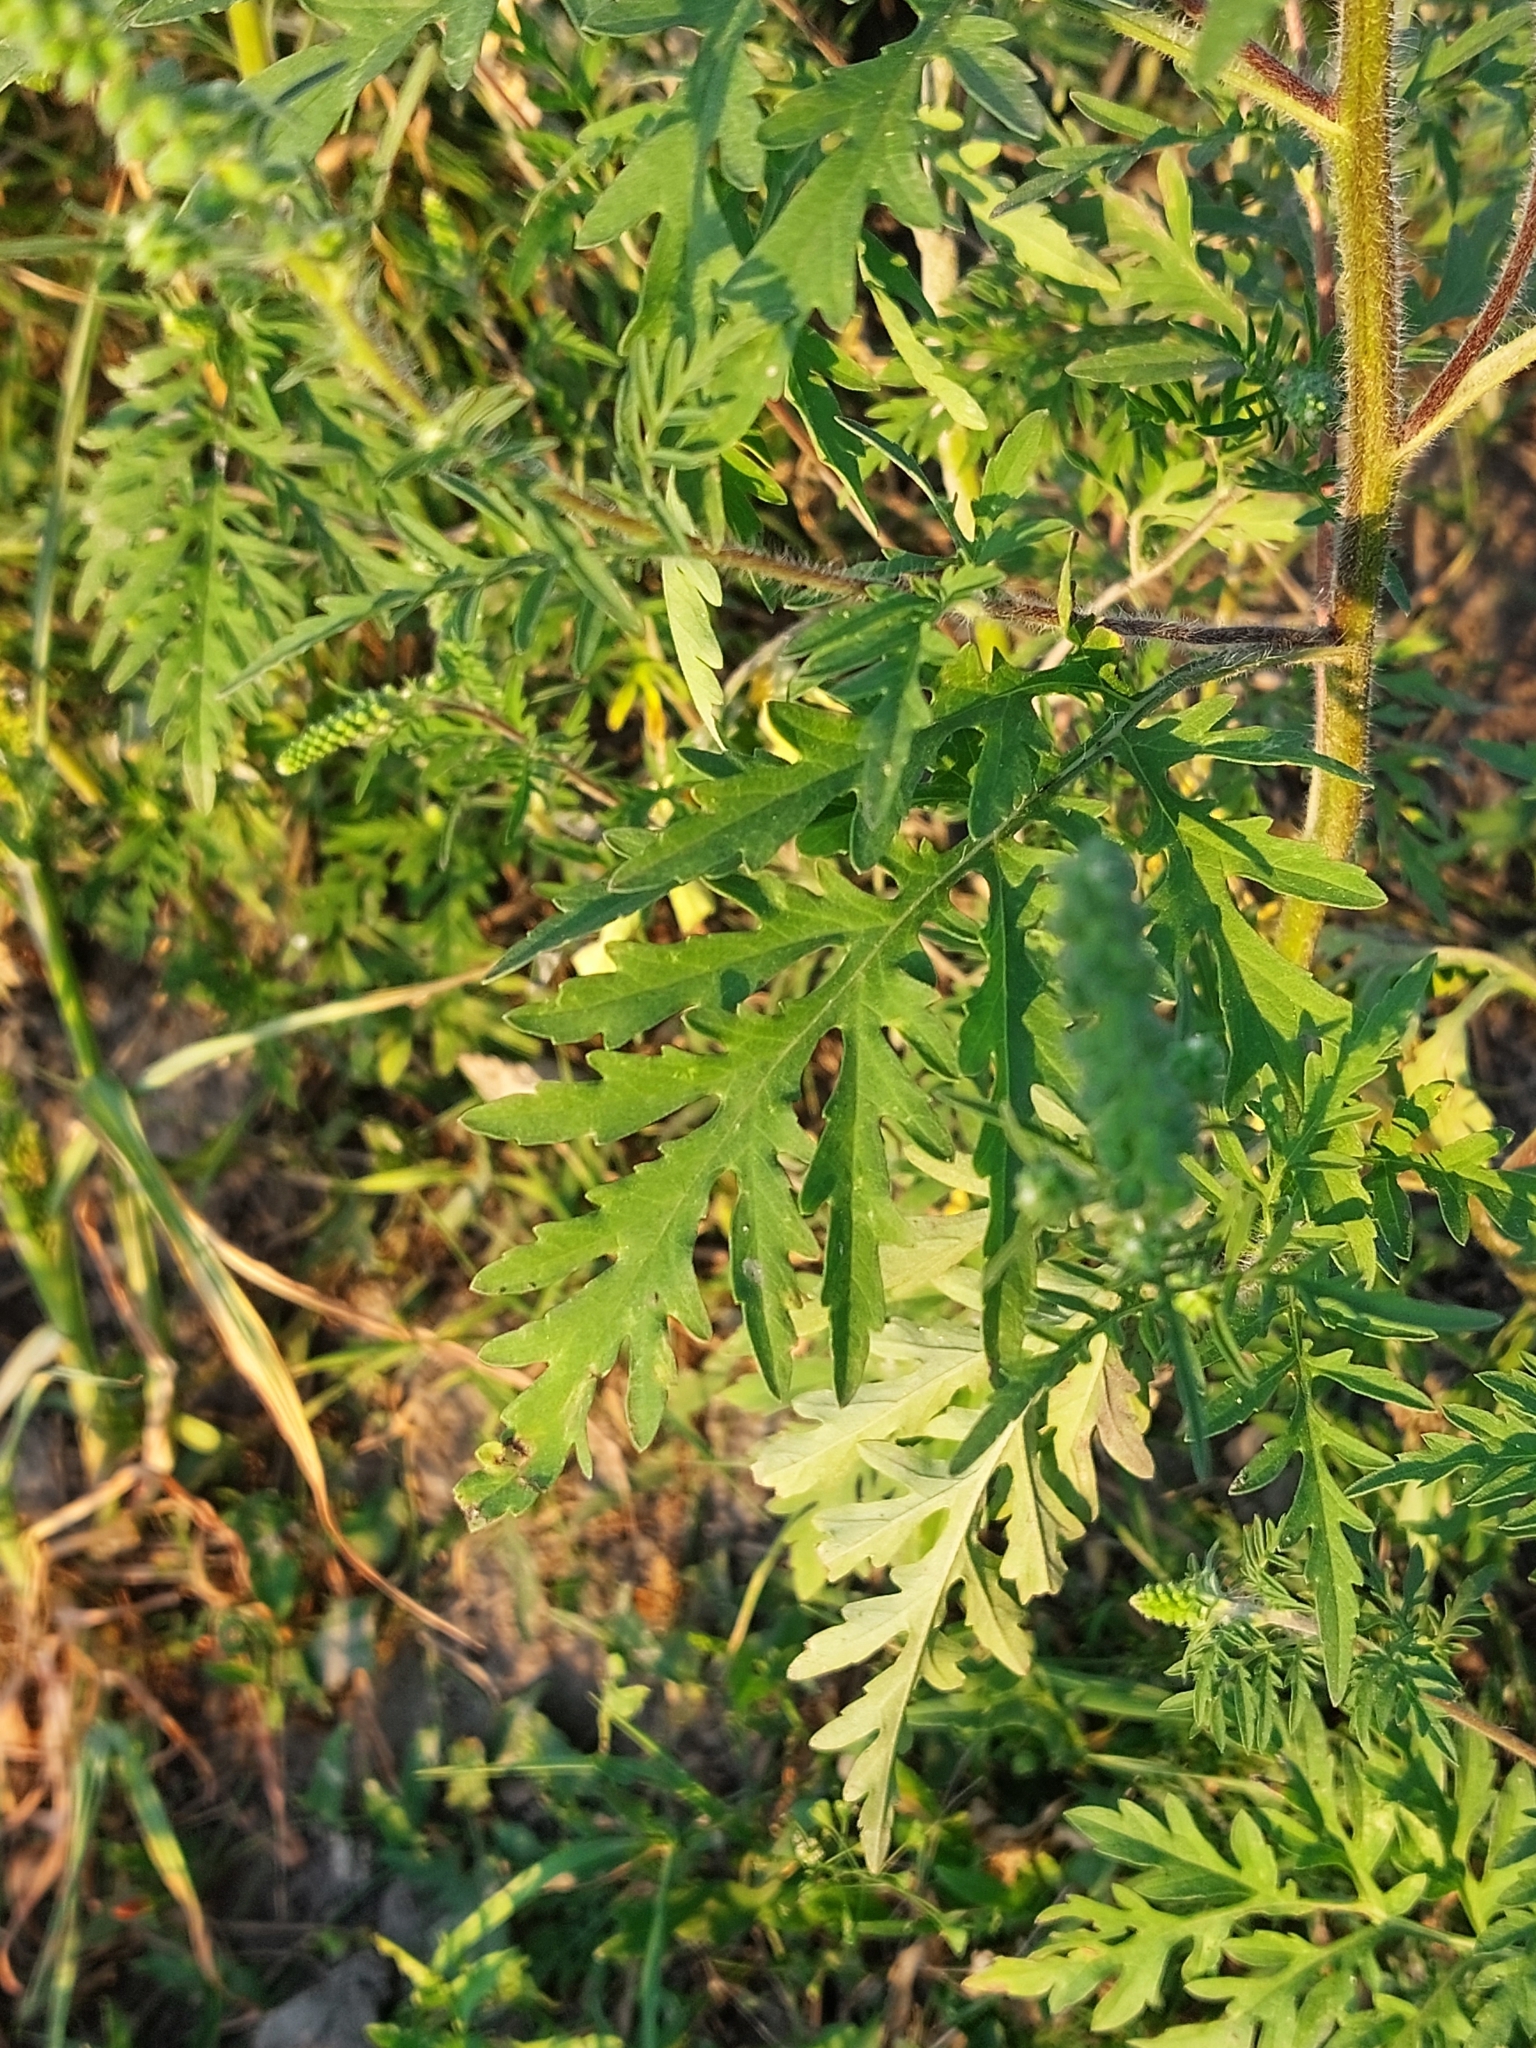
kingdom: Plantae
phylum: Tracheophyta
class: Magnoliopsida
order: Asterales
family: Asteraceae
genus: Ambrosia
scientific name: Ambrosia artemisiifolia
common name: Annual ragweed
